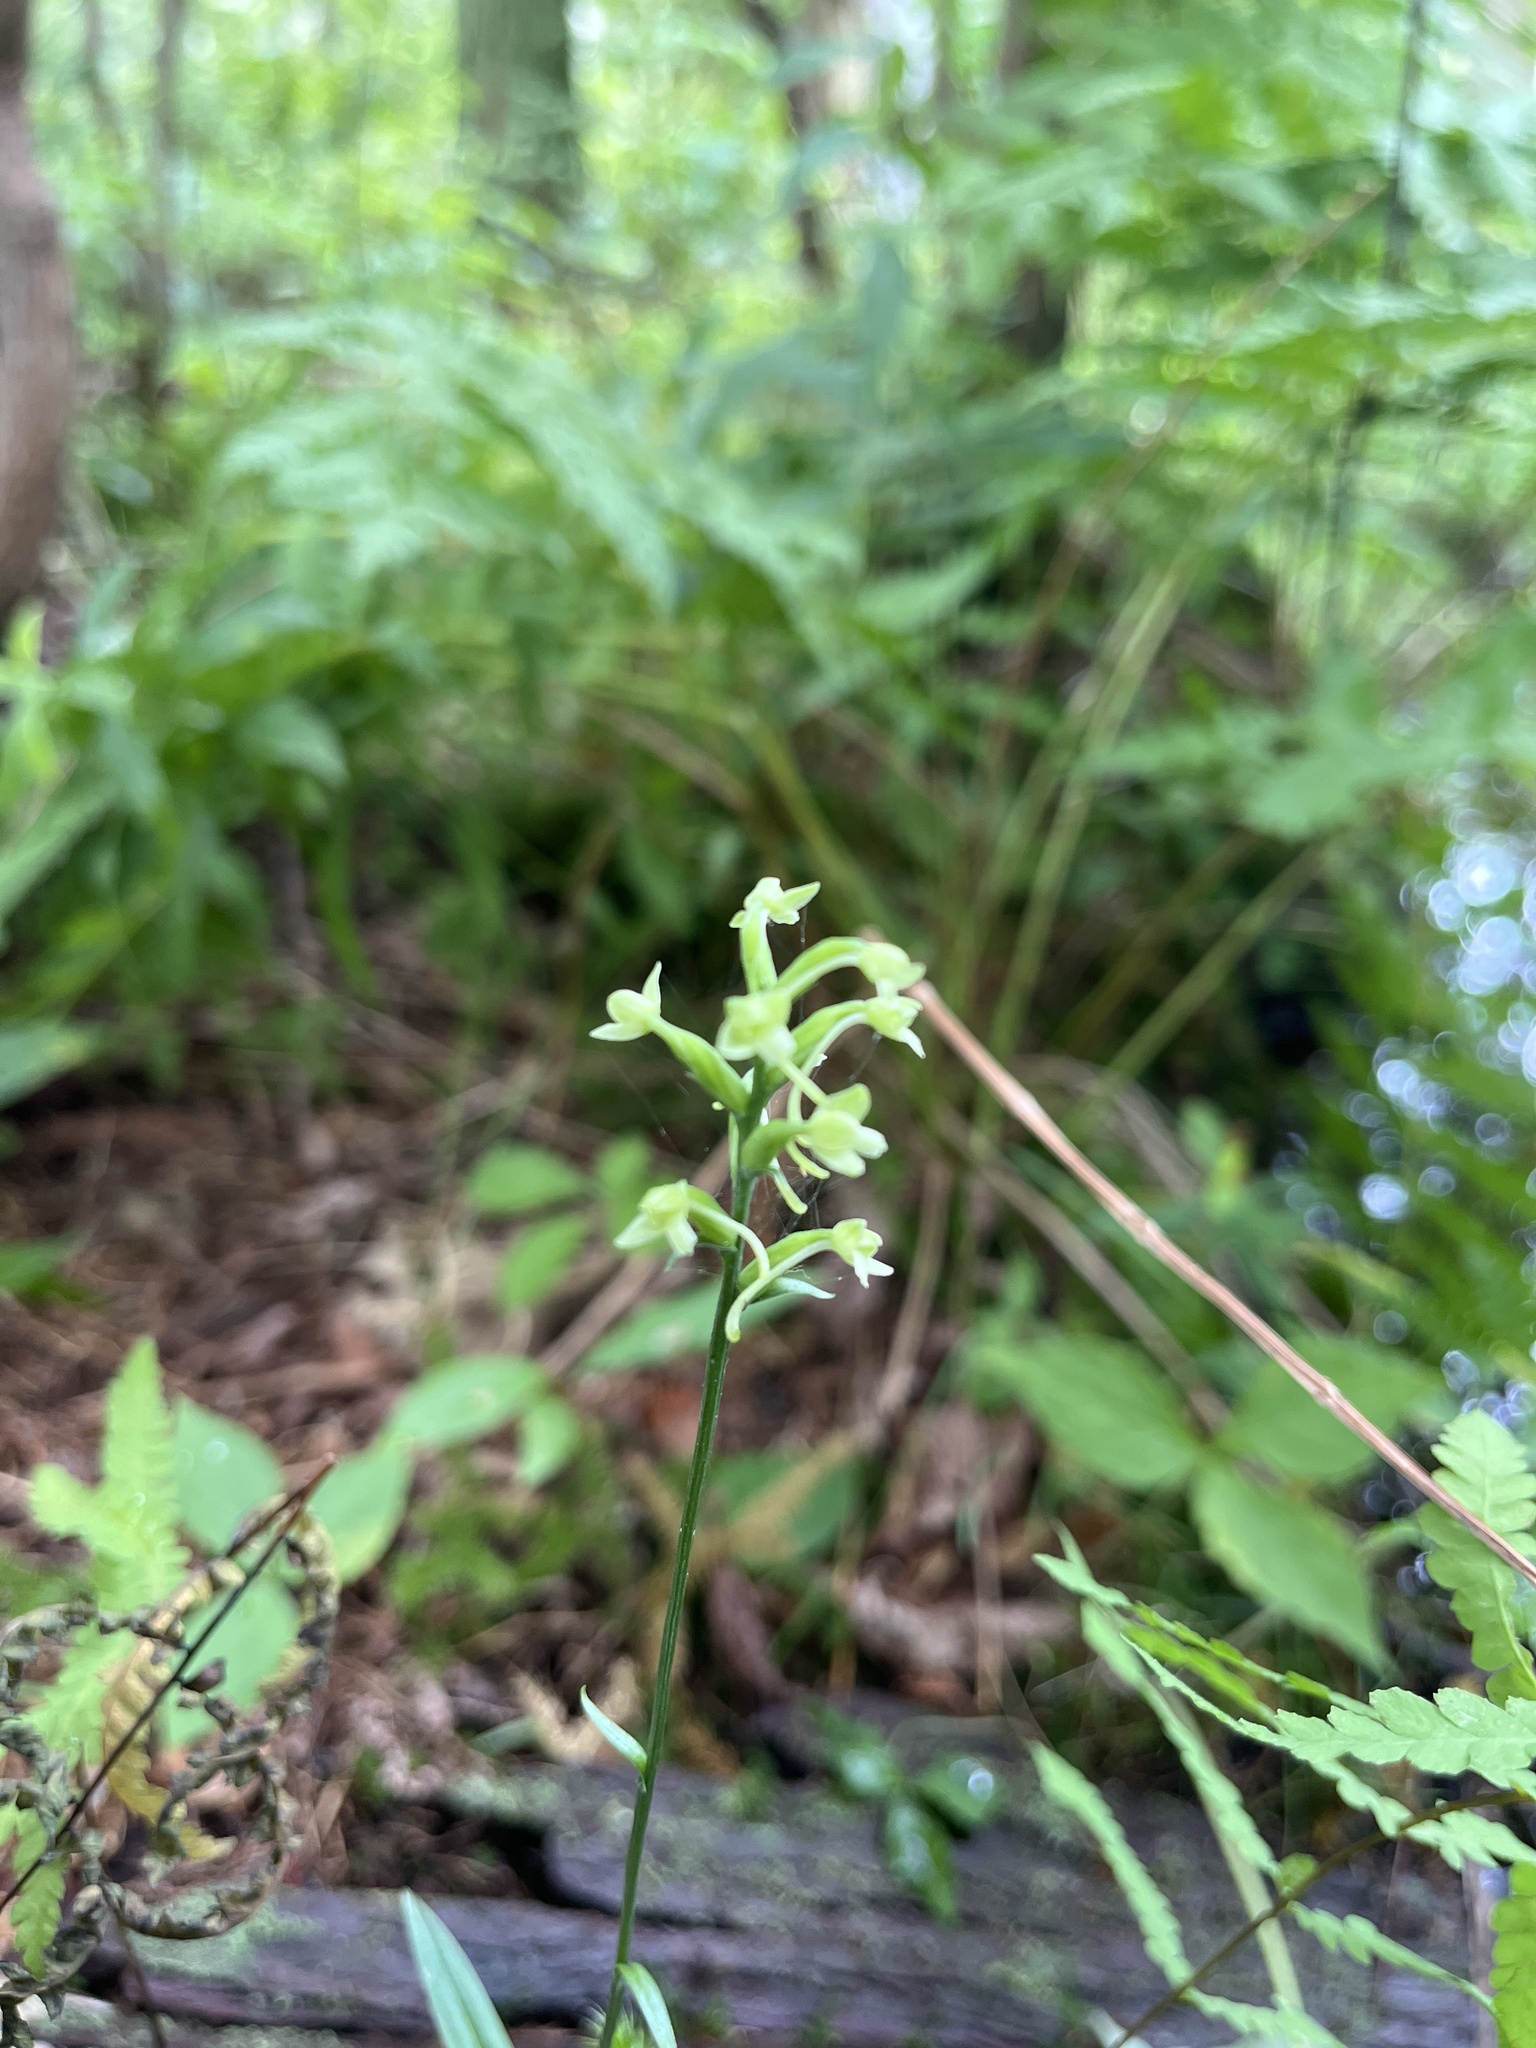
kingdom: Plantae
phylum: Tracheophyta
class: Liliopsida
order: Asparagales
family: Orchidaceae
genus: Platanthera
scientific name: Platanthera clavellata
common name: Club-spur orchid
